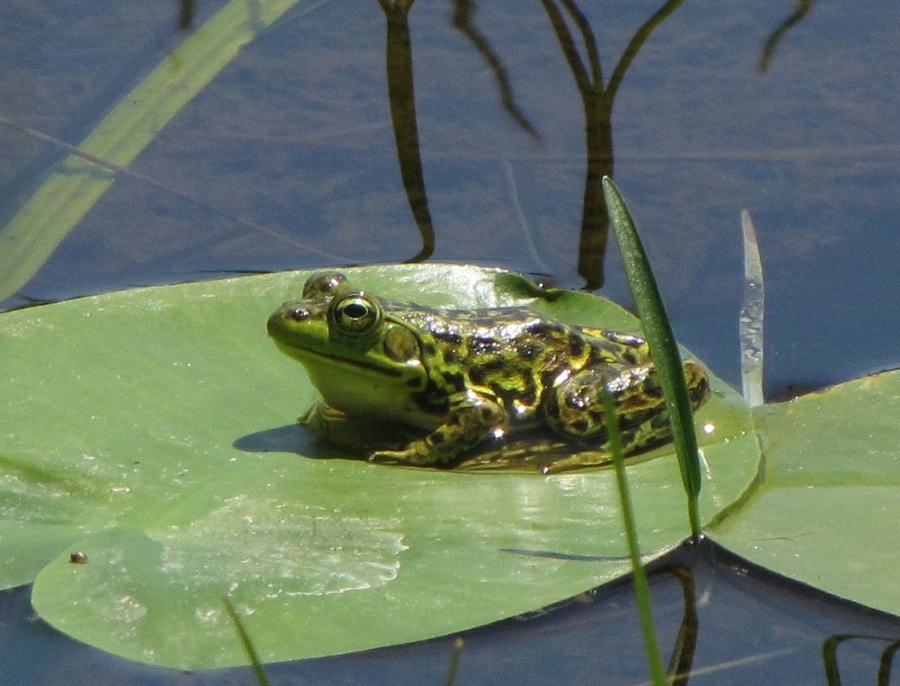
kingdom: Animalia
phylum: Chordata
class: Amphibia
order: Anura
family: Ranidae
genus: Lithobates
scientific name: Lithobates septentrionalis
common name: Mink frog
